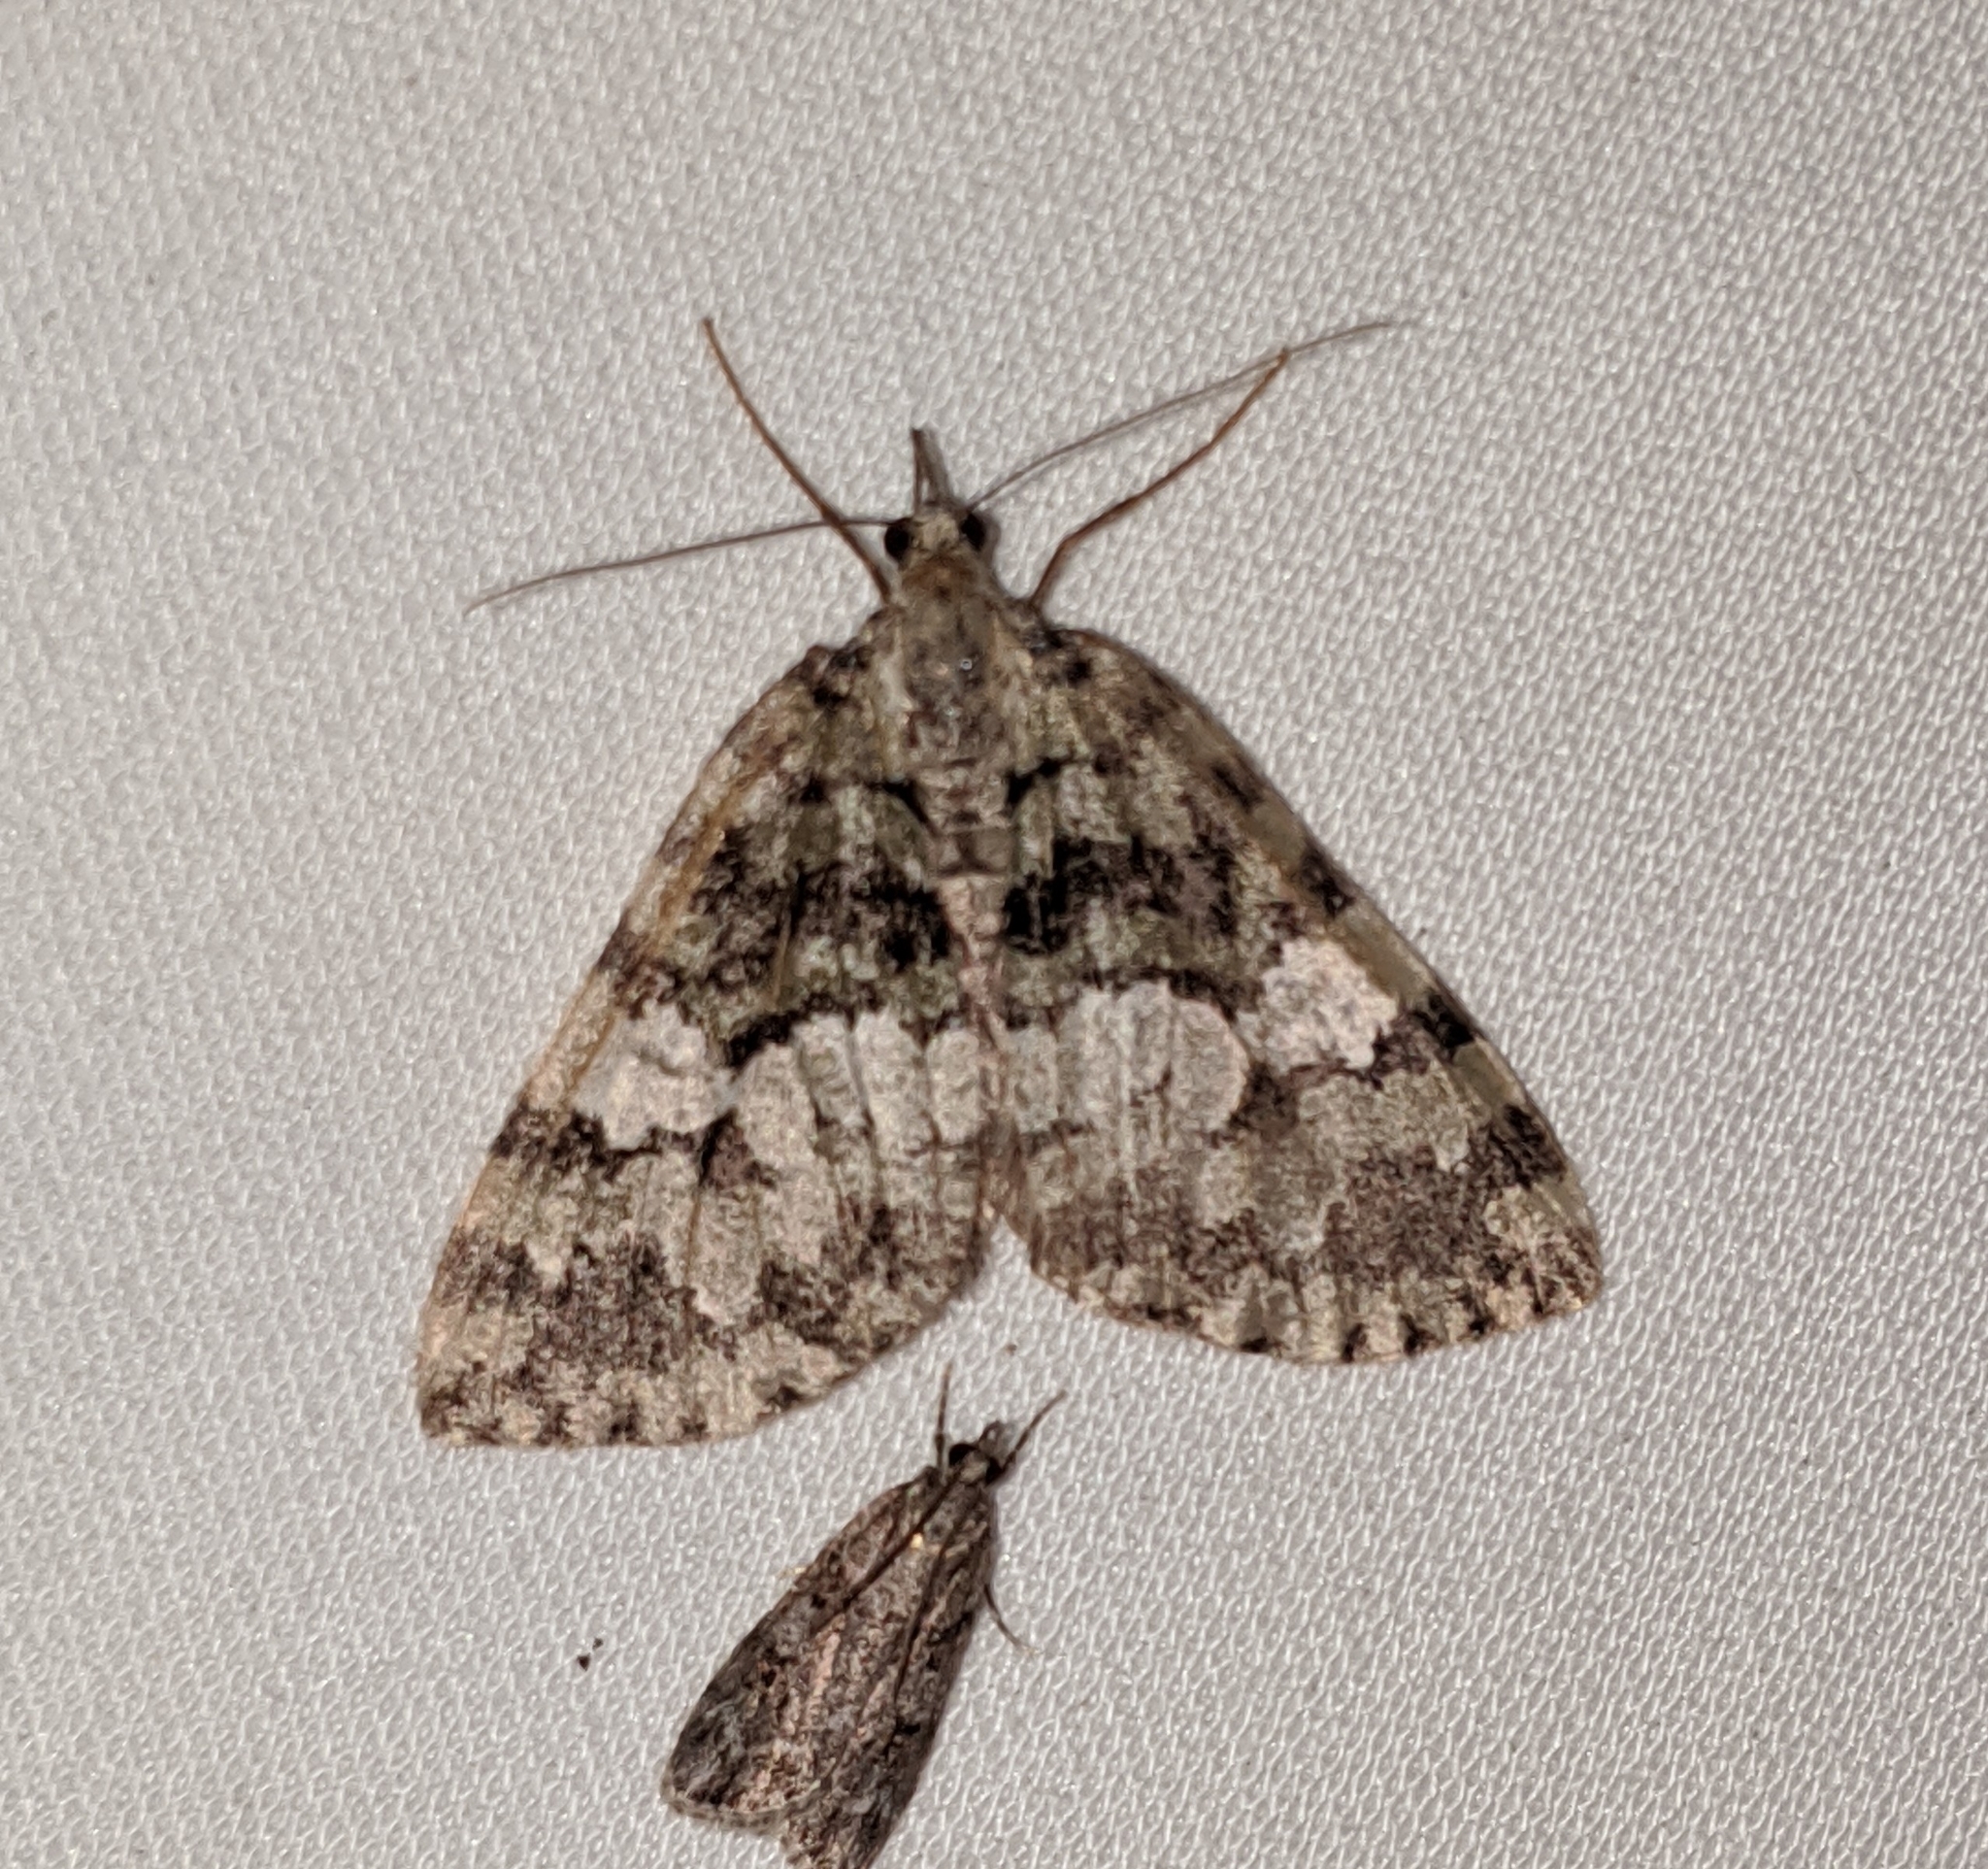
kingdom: Animalia
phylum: Arthropoda
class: Insecta
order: Lepidoptera
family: Geometridae
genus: Hydriomena
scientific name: Hydriomena speciosata
